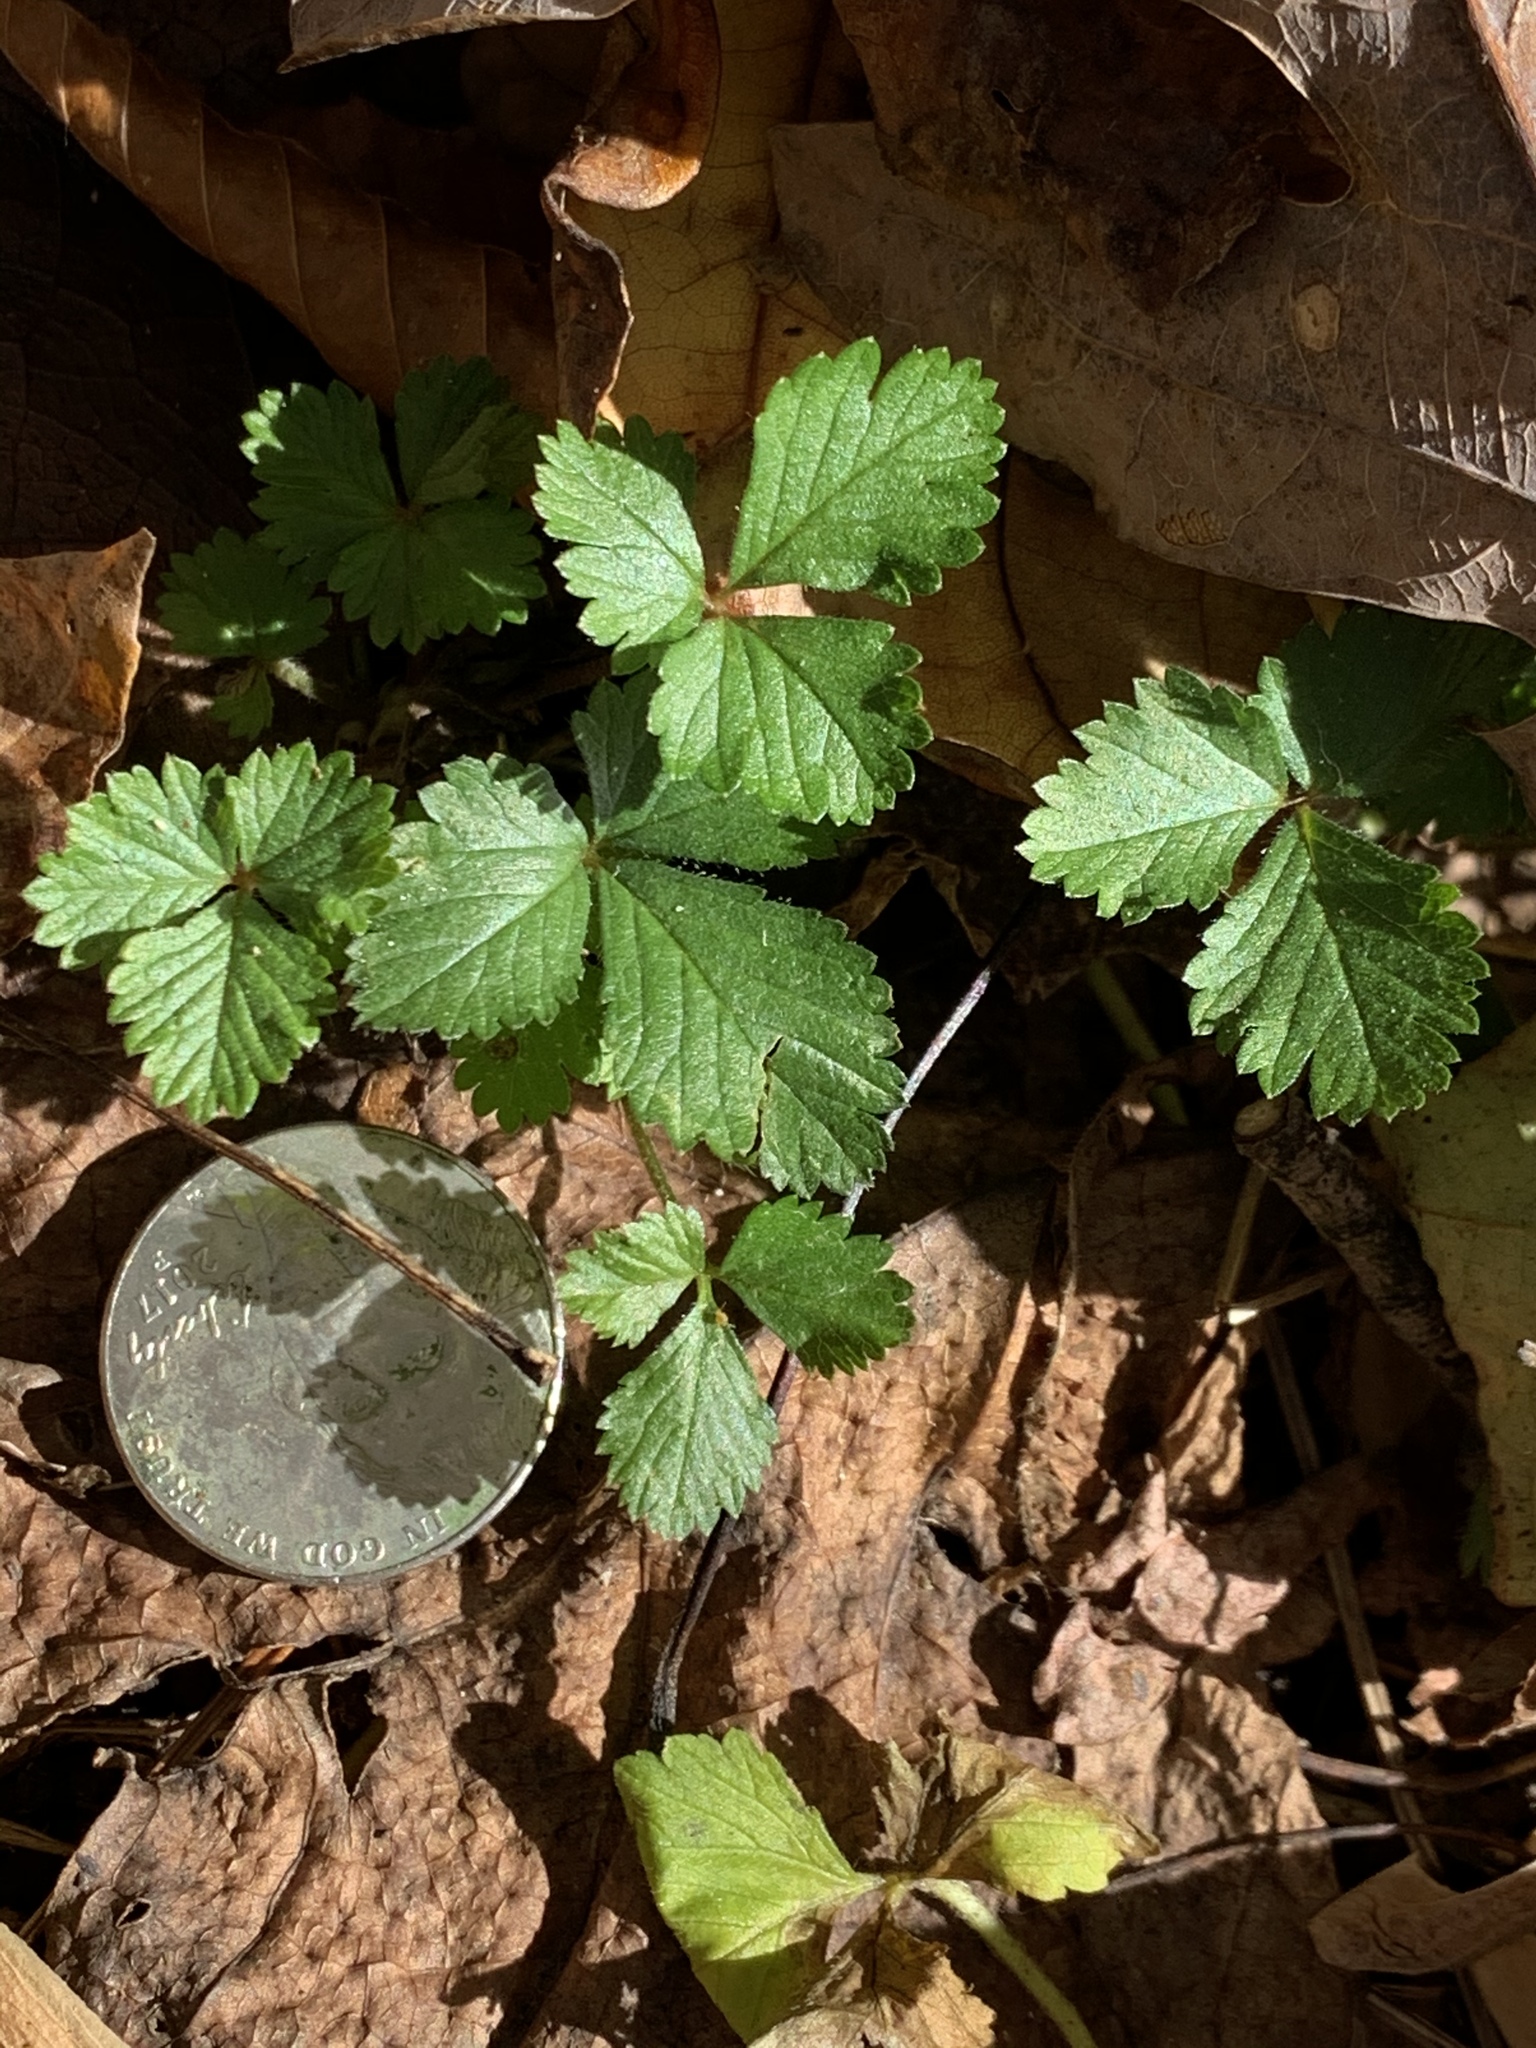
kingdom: Plantae
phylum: Tracheophyta
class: Magnoliopsida
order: Rosales
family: Rosaceae
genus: Potentilla
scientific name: Potentilla indica
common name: Yellow-flowered strawberry
